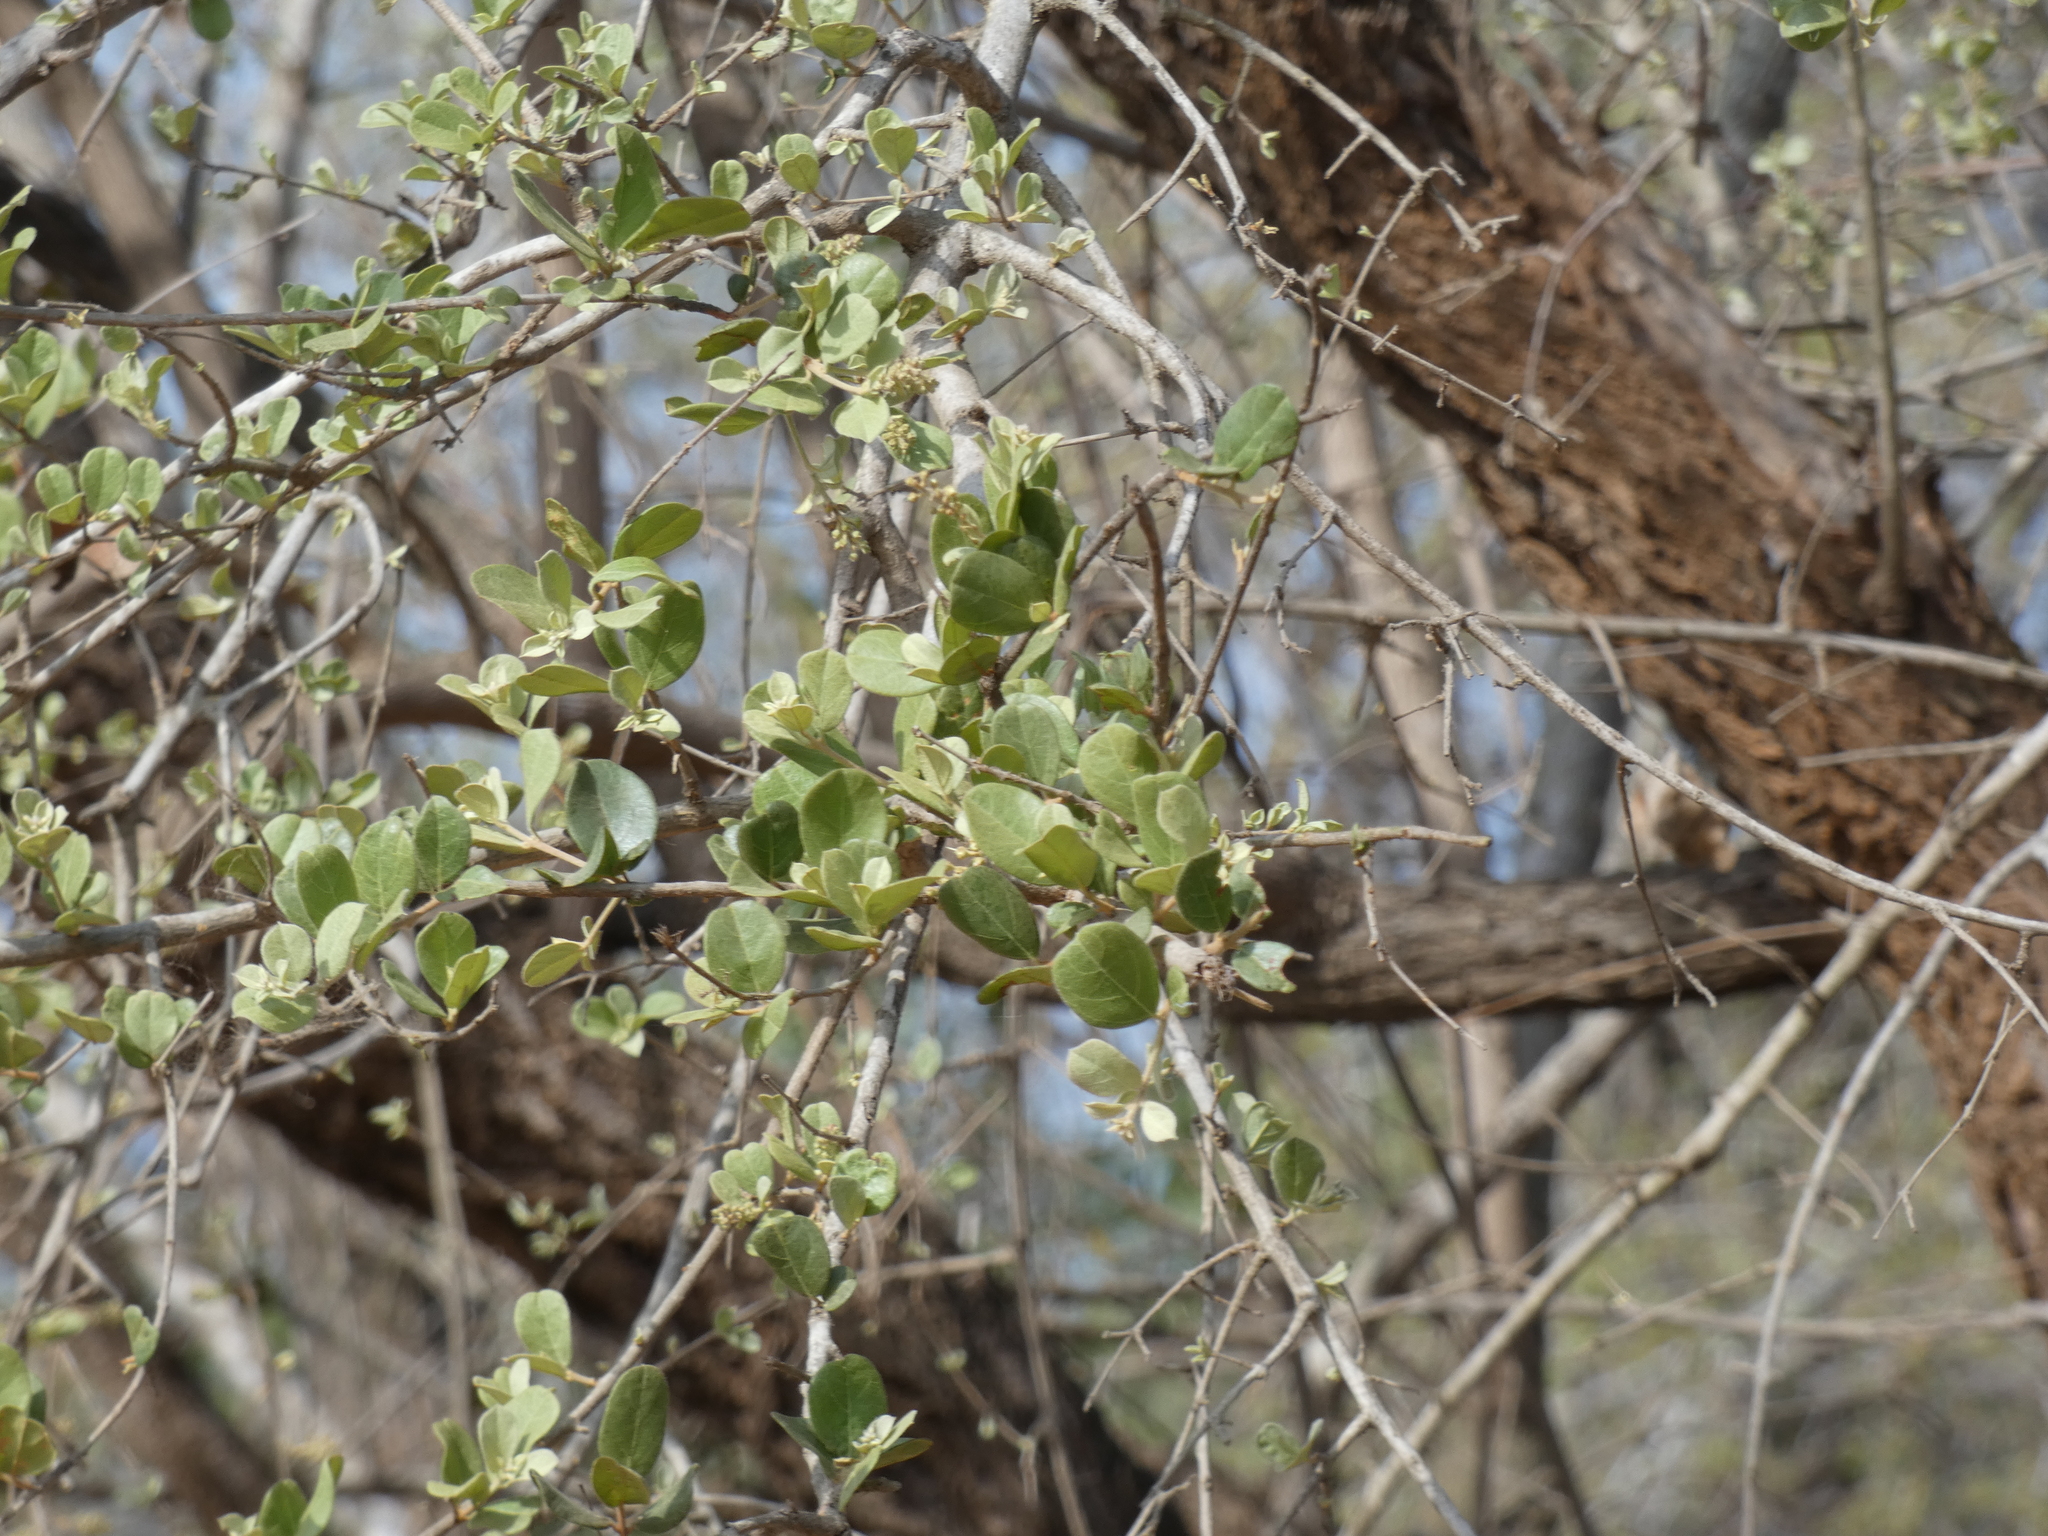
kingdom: Plantae
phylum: Tracheophyta
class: Magnoliopsida
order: Myrtales
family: Combretaceae
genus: Combretum
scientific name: Combretum imberbe
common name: Leadwood
